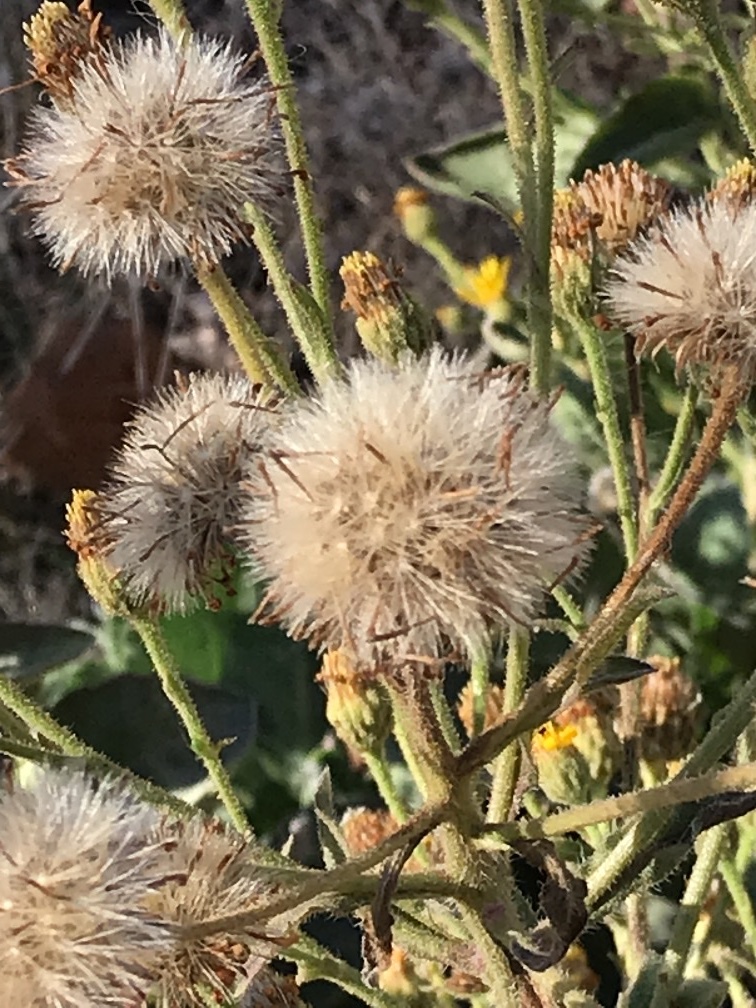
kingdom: Plantae
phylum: Tracheophyta
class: Magnoliopsida
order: Asterales
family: Asteraceae
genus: Heterotheca
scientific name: Heterotheca grandiflora
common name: Telegraphweed
